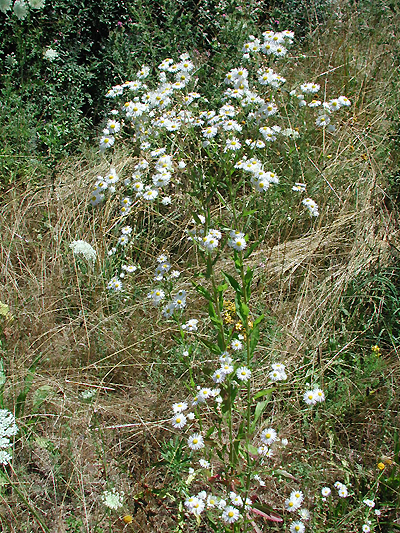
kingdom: Plantae
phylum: Tracheophyta
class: Magnoliopsida
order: Asterales
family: Asteraceae
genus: Erigeron
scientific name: Erigeron annuus
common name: Tall fleabane
